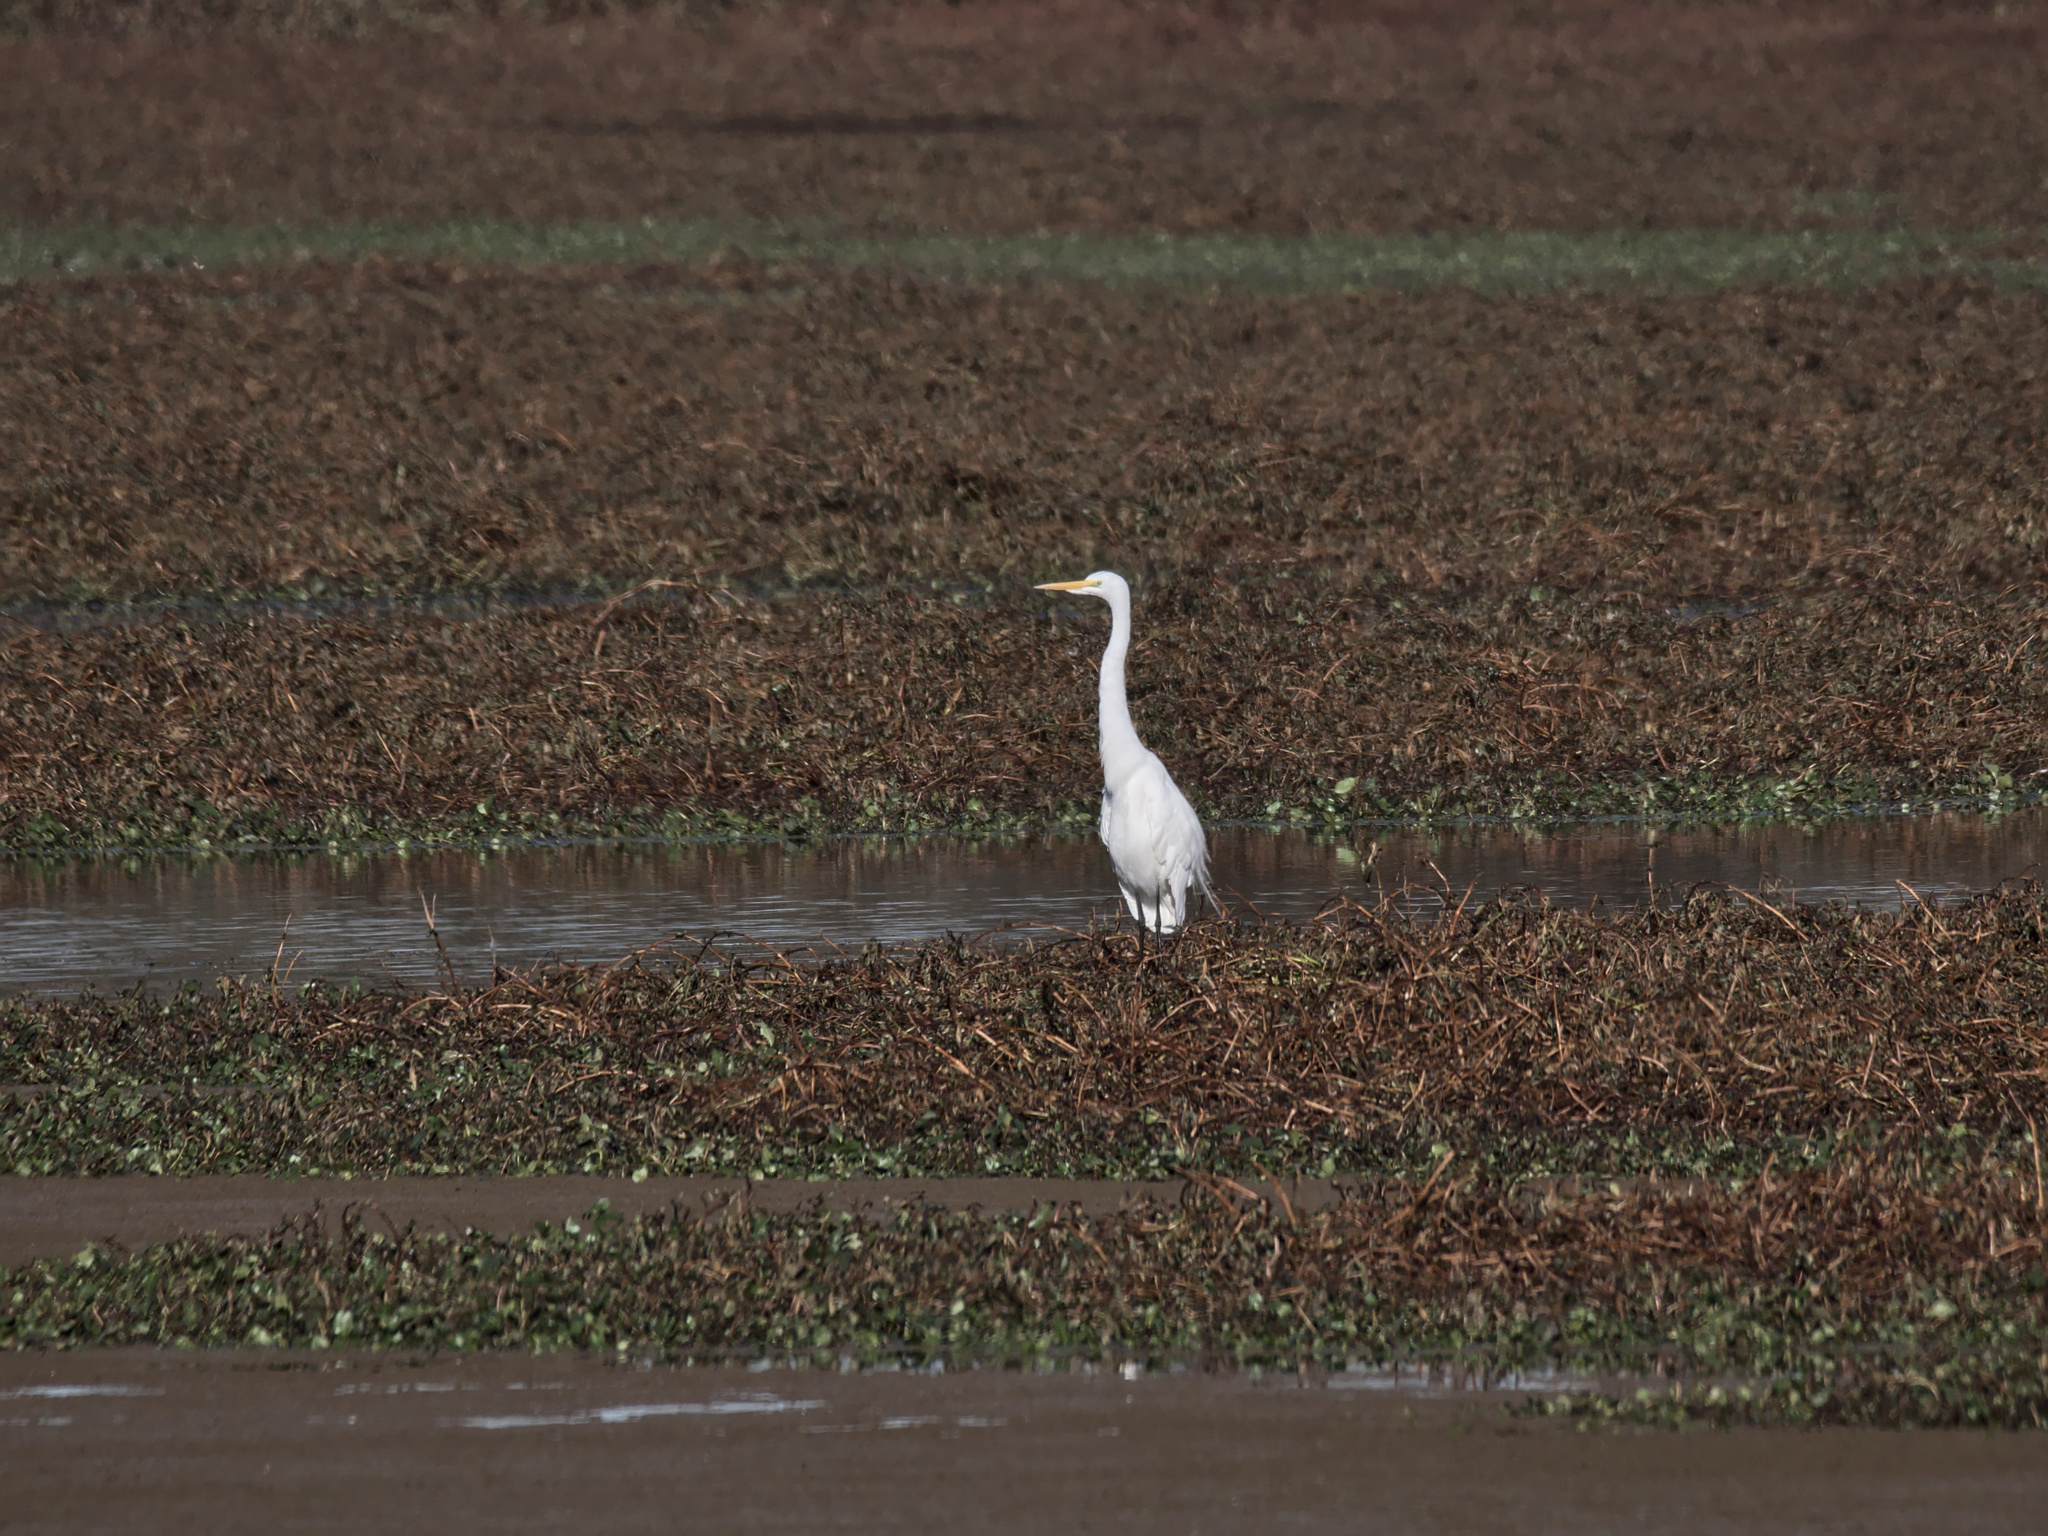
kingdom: Animalia
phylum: Chordata
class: Aves
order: Pelecaniformes
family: Ardeidae
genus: Ardea
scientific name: Ardea alba
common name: Great egret
